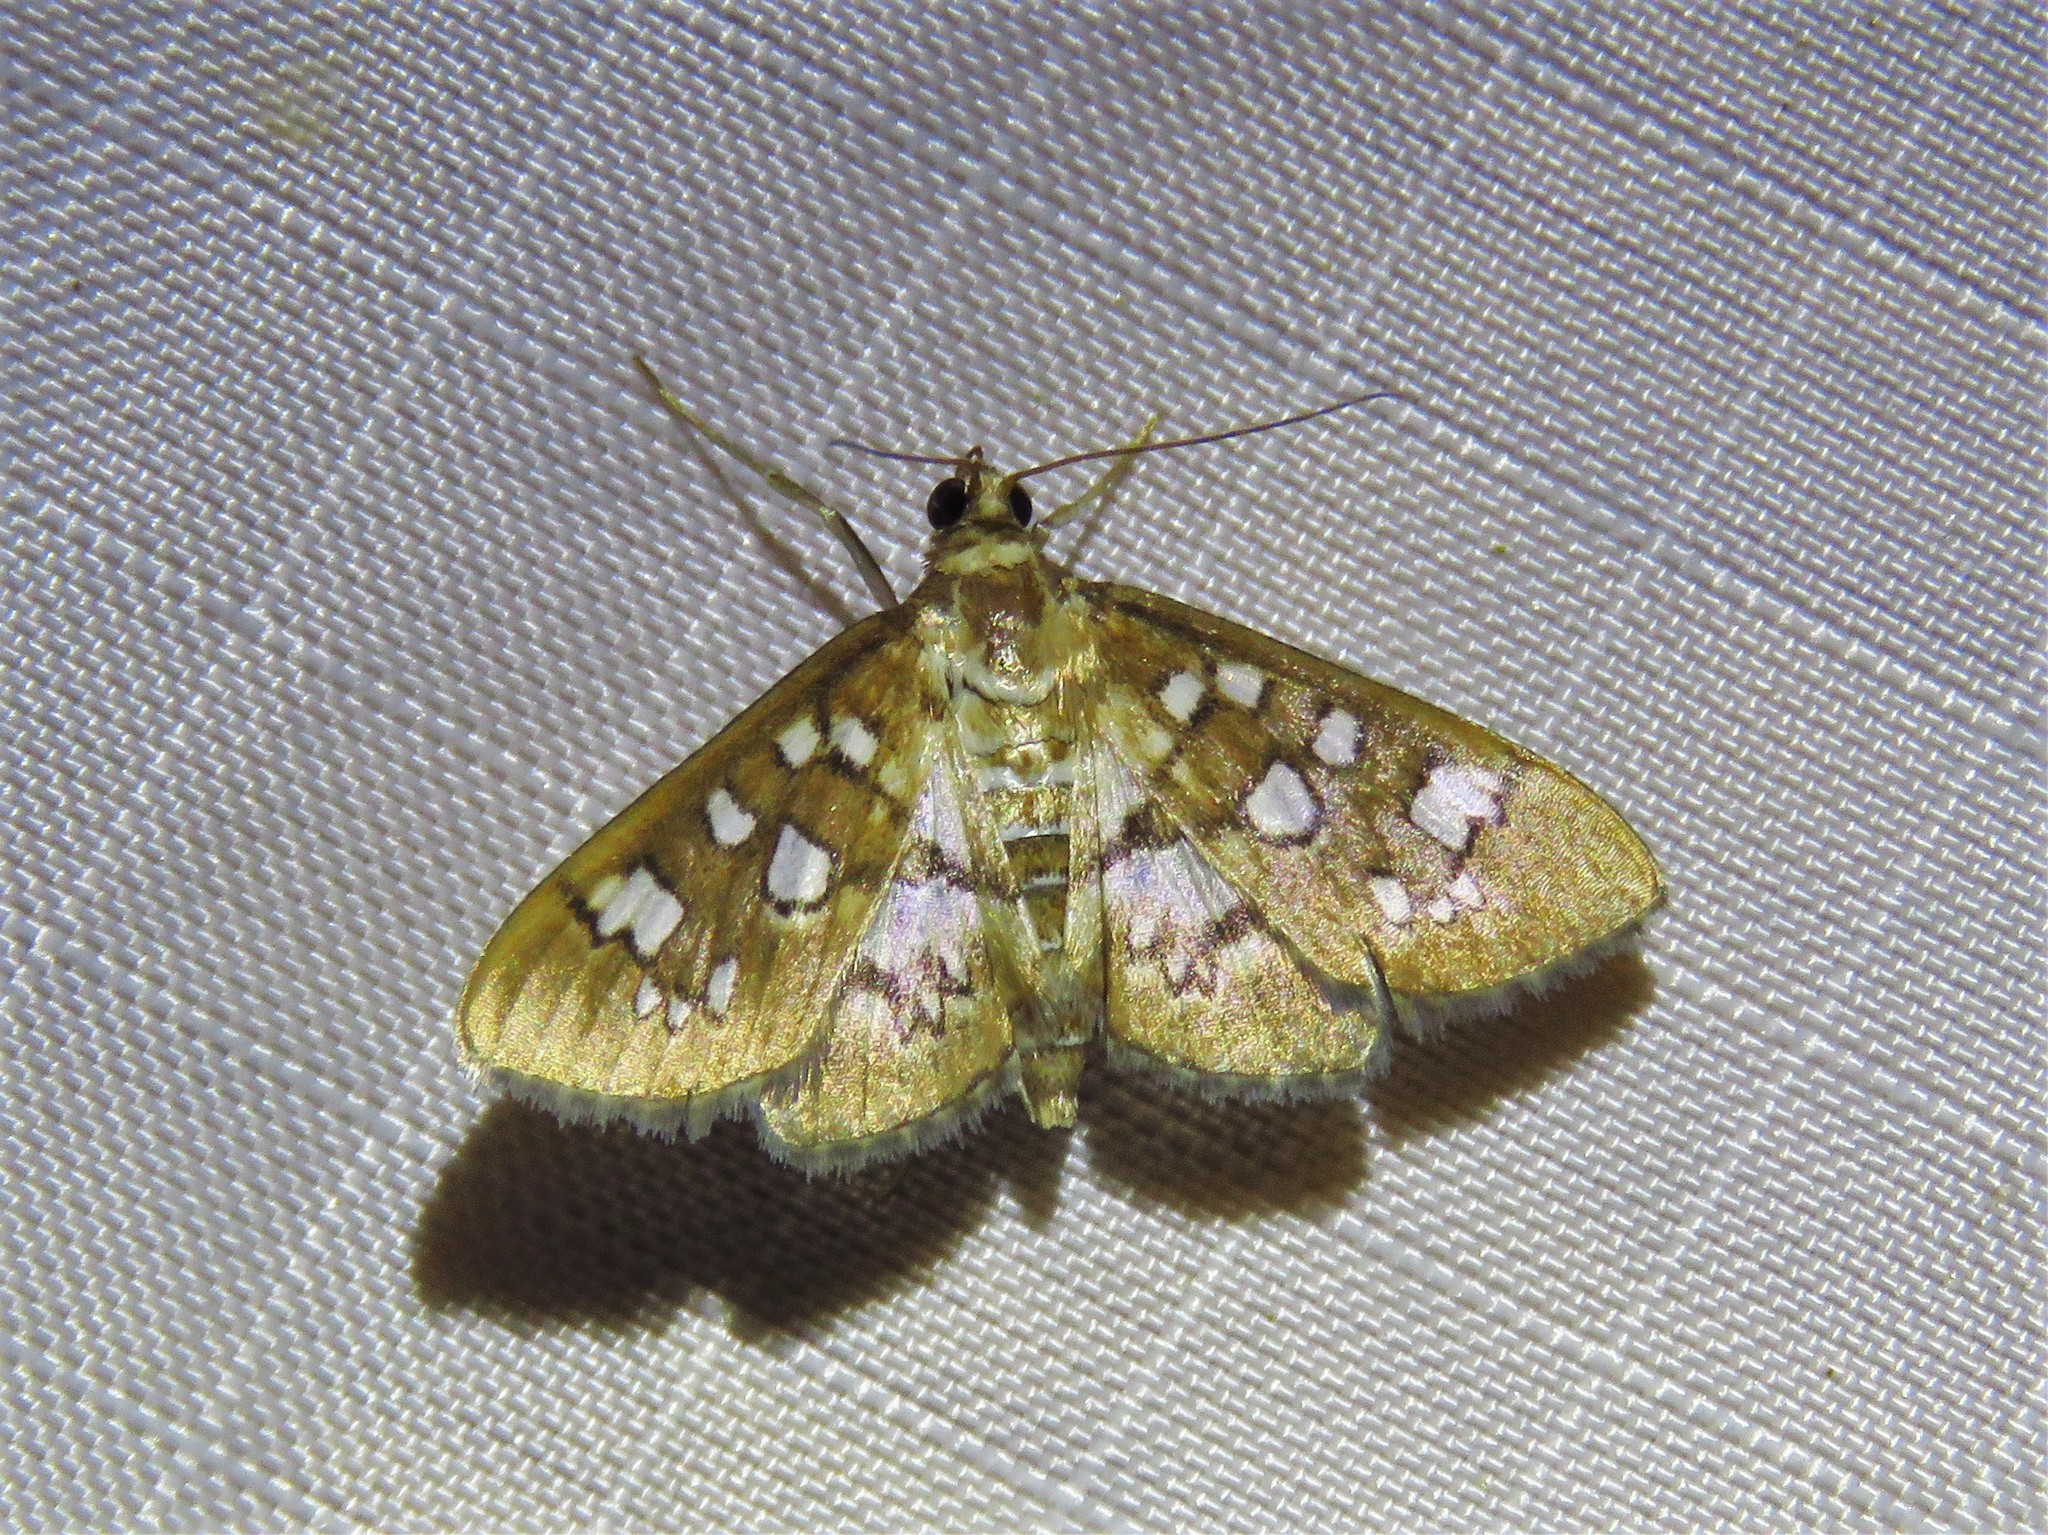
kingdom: Animalia
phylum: Arthropoda
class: Insecta
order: Lepidoptera
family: Crambidae
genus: Samea
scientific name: Samea baccatalis
